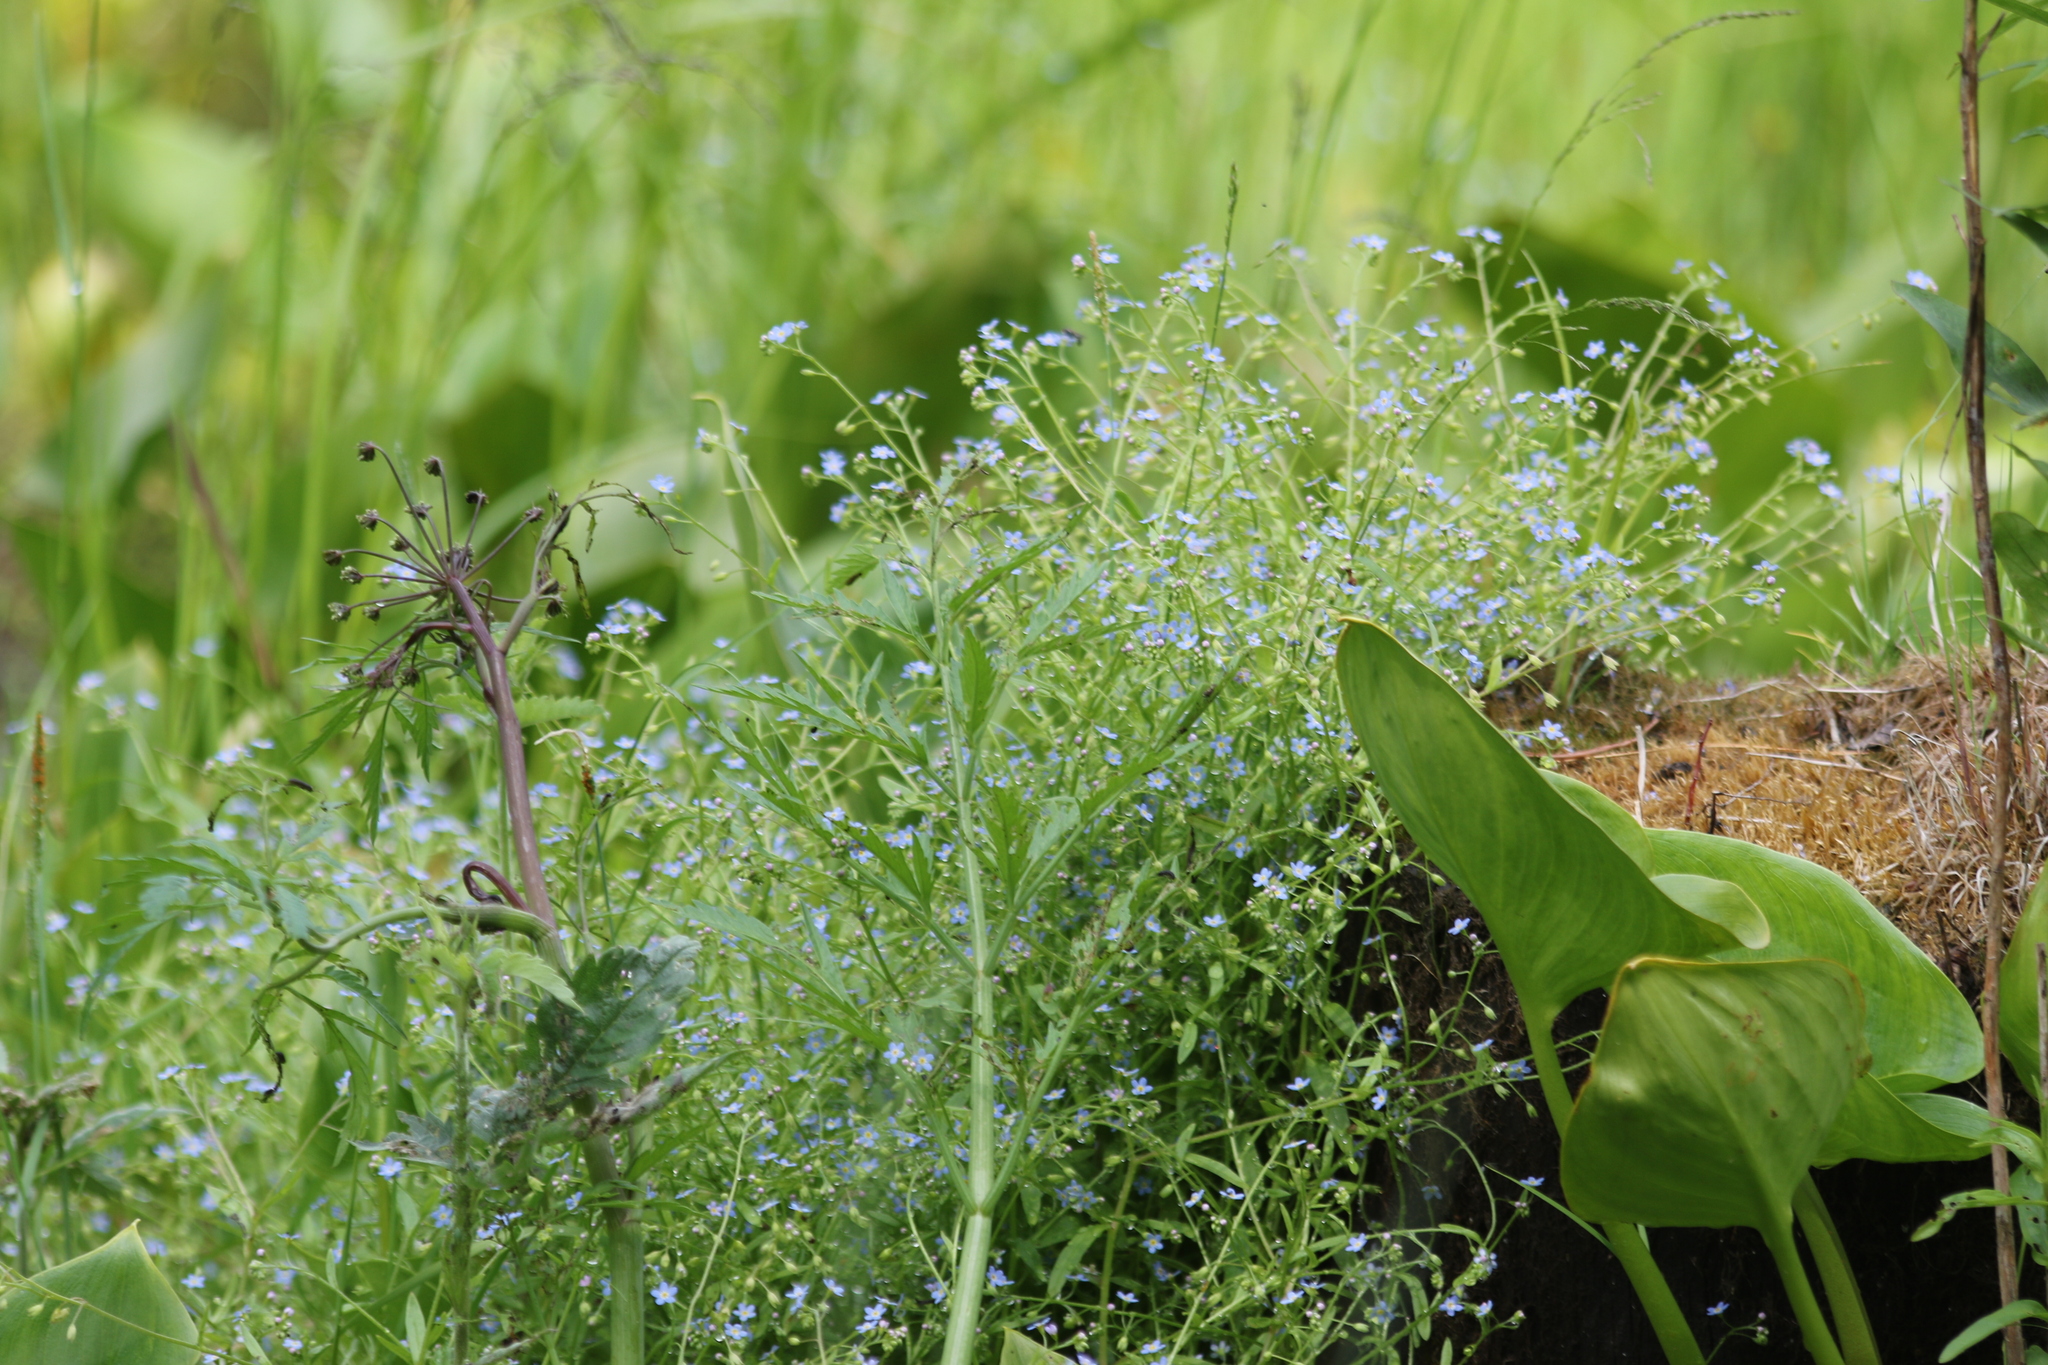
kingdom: Plantae
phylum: Tracheophyta
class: Magnoliopsida
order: Boraginales
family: Boraginaceae
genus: Myosotis
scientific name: Myosotis scorpioides
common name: Water forget-me-not
